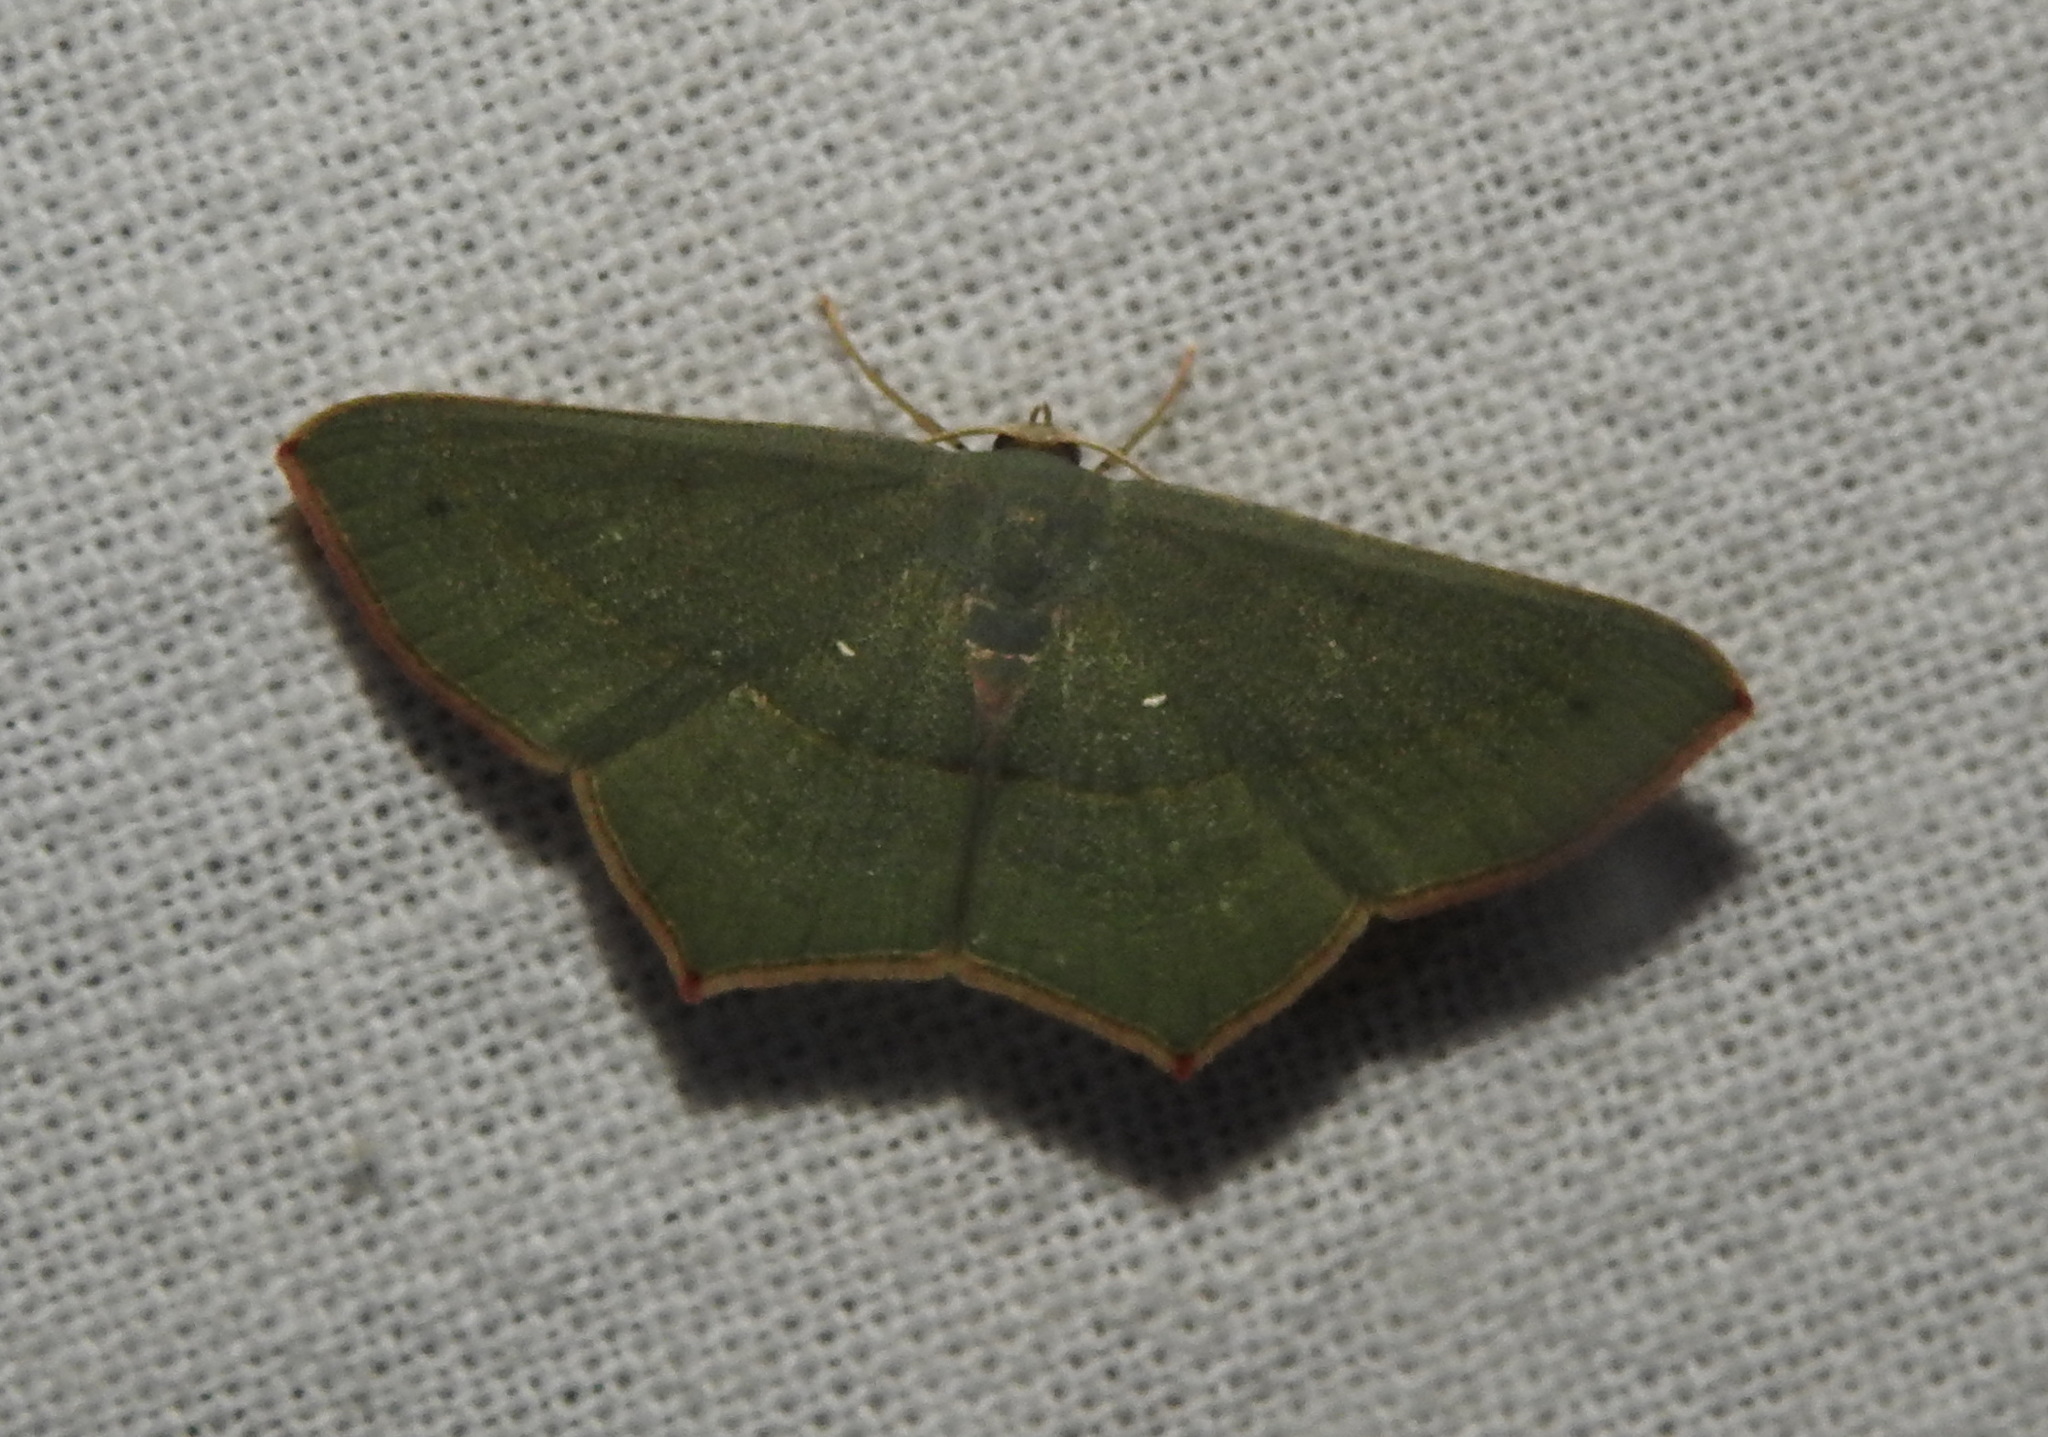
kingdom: Animalia
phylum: Arthropoda
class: Insecta
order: Lepidoptera
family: Geometridae
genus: Traminda
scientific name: Traminda mundissima
